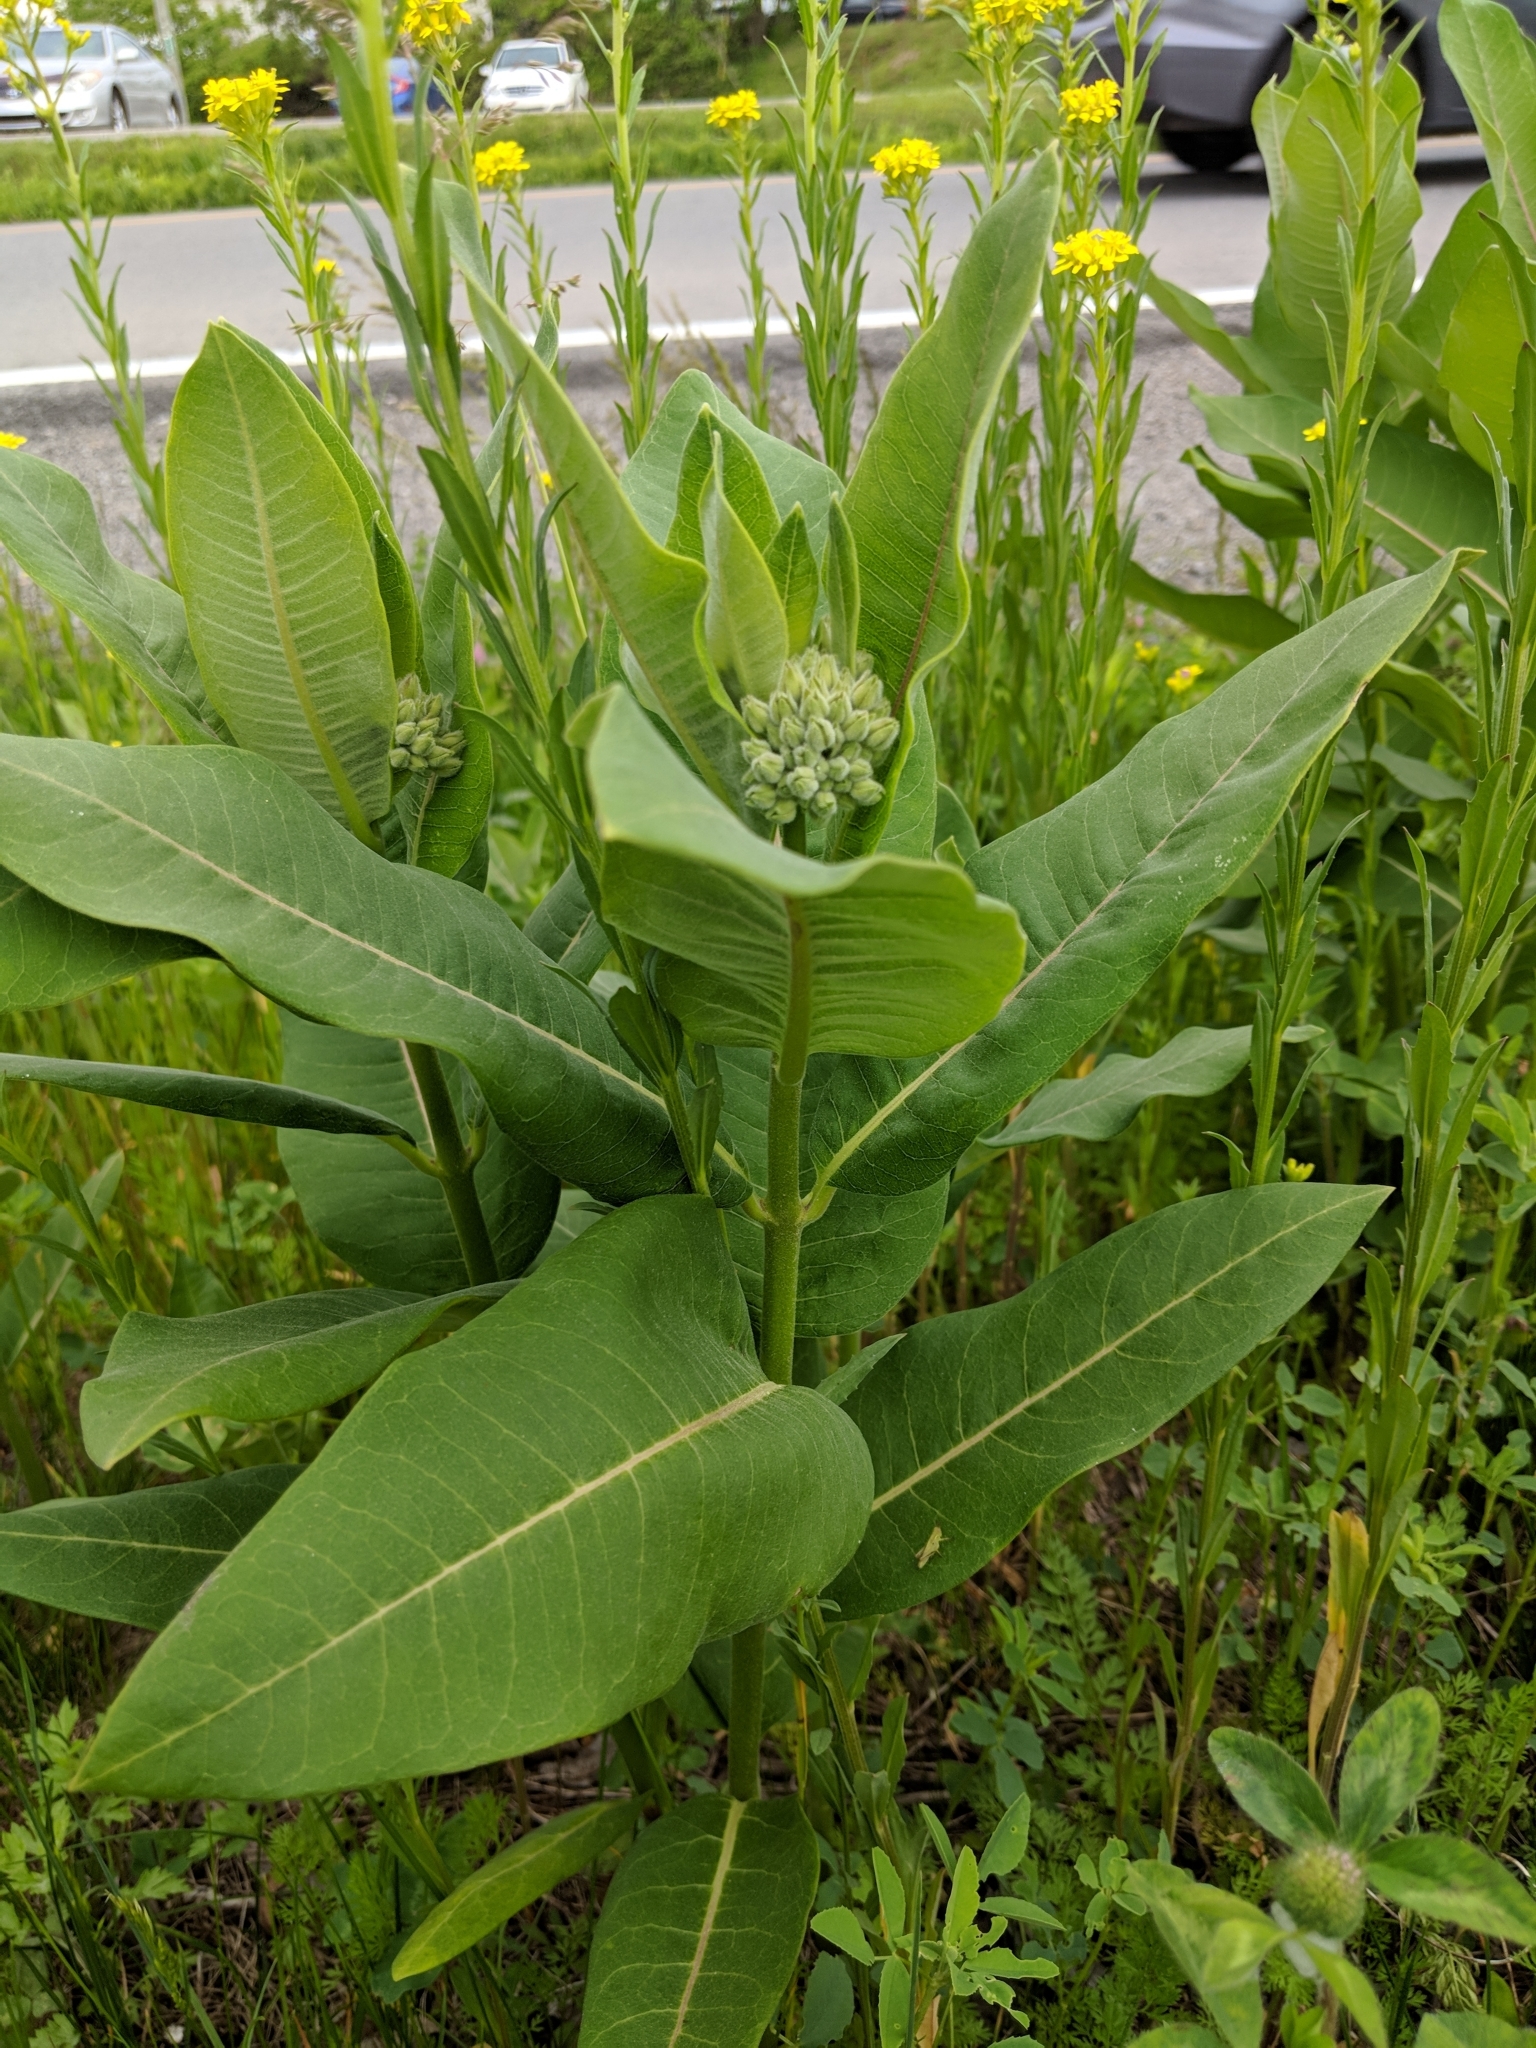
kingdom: Plantae
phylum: Tracheophyta
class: Magnoliopsida
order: Gentianales
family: Apocynaceae
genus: Asclepias
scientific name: Asclepias syriaca
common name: Common milkweed
